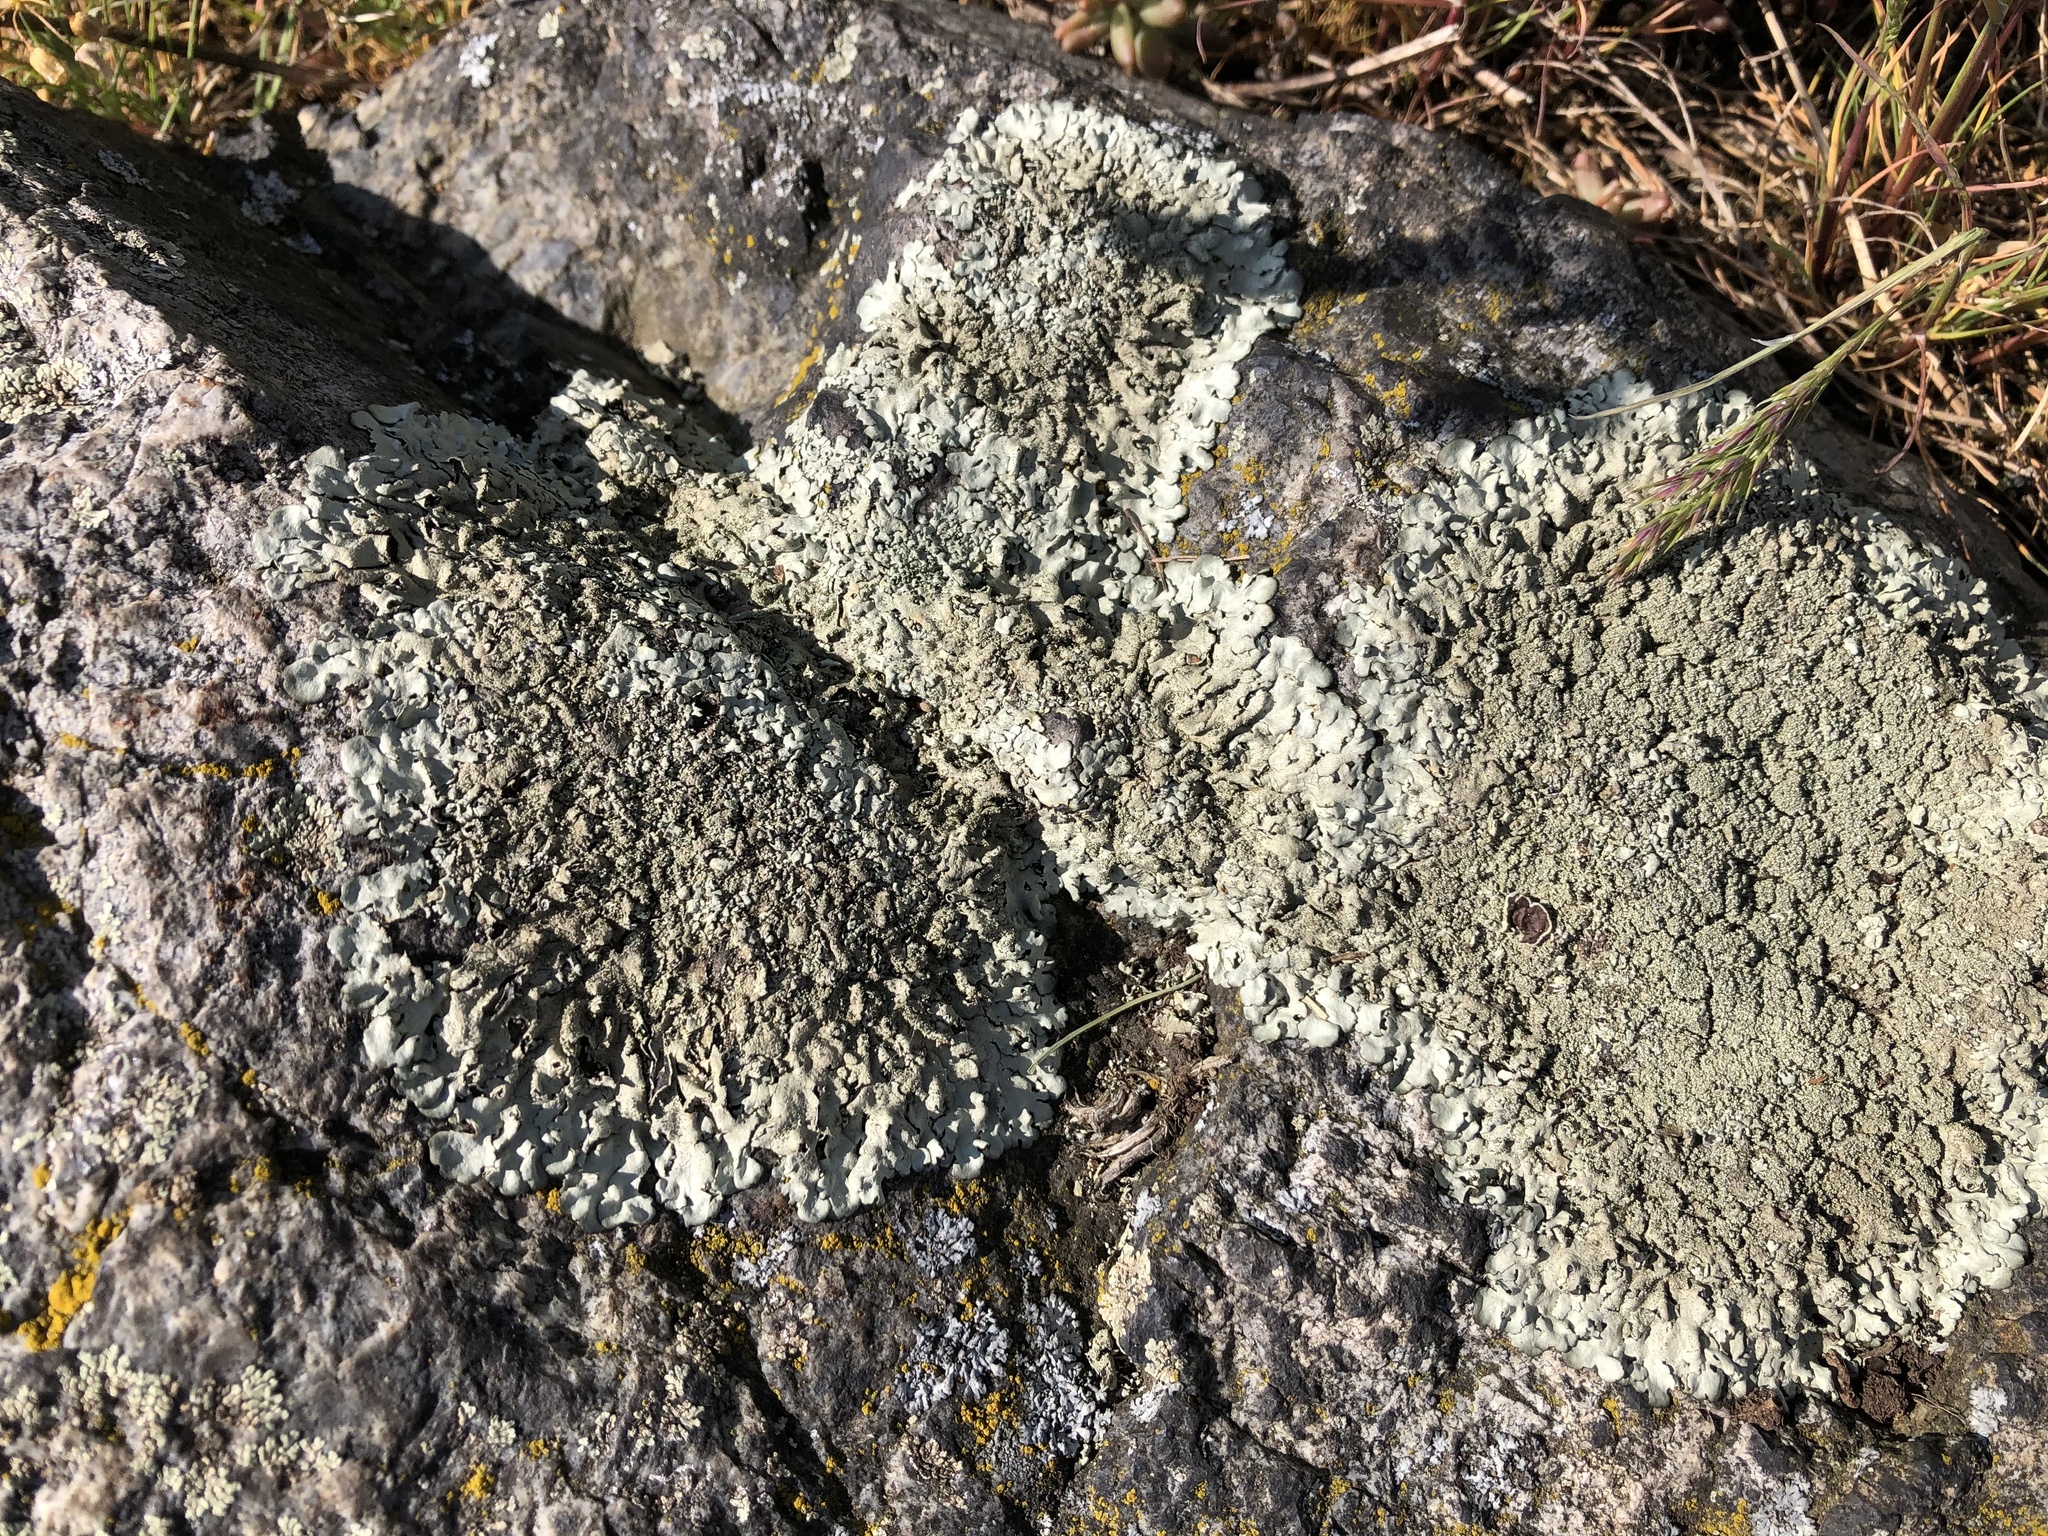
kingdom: Fungi
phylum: Ascomycota
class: Lecanoromycetes
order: Lecanorales
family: Parmeliaceae
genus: Xanthoparmelia
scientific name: Xanthoparmelia conspersa
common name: Peppered rock shield
